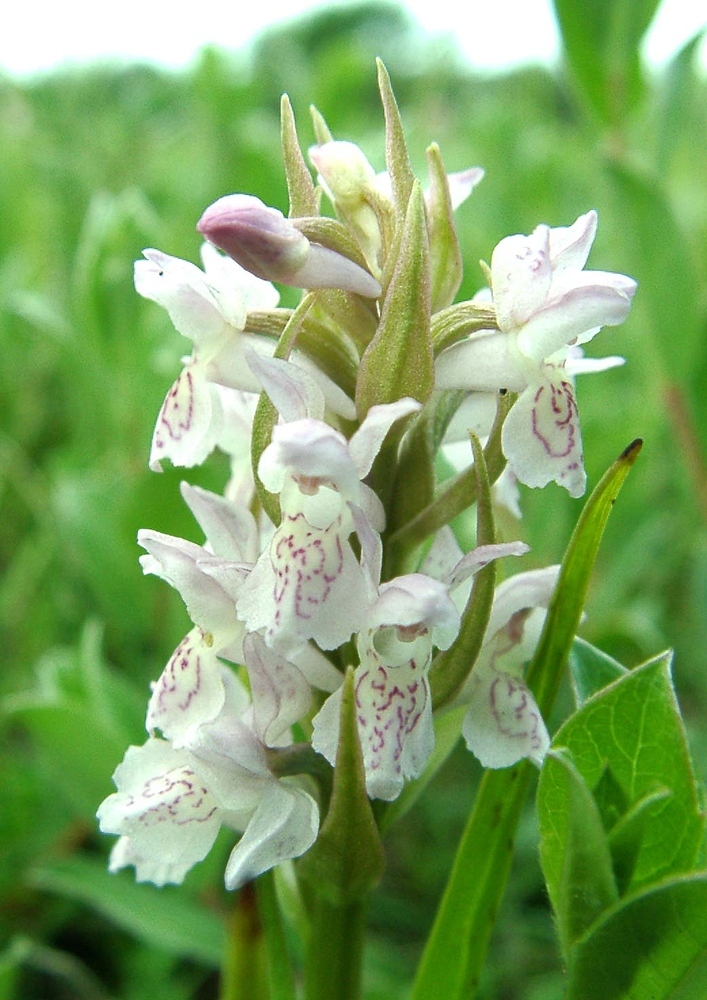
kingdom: Plantae
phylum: Tracheophyta
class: Liliopsida
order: Asparagales
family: Orchidaceae
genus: Dactylorhiza
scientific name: Dactylorhiza incarnata
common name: Early marsh-orchid
